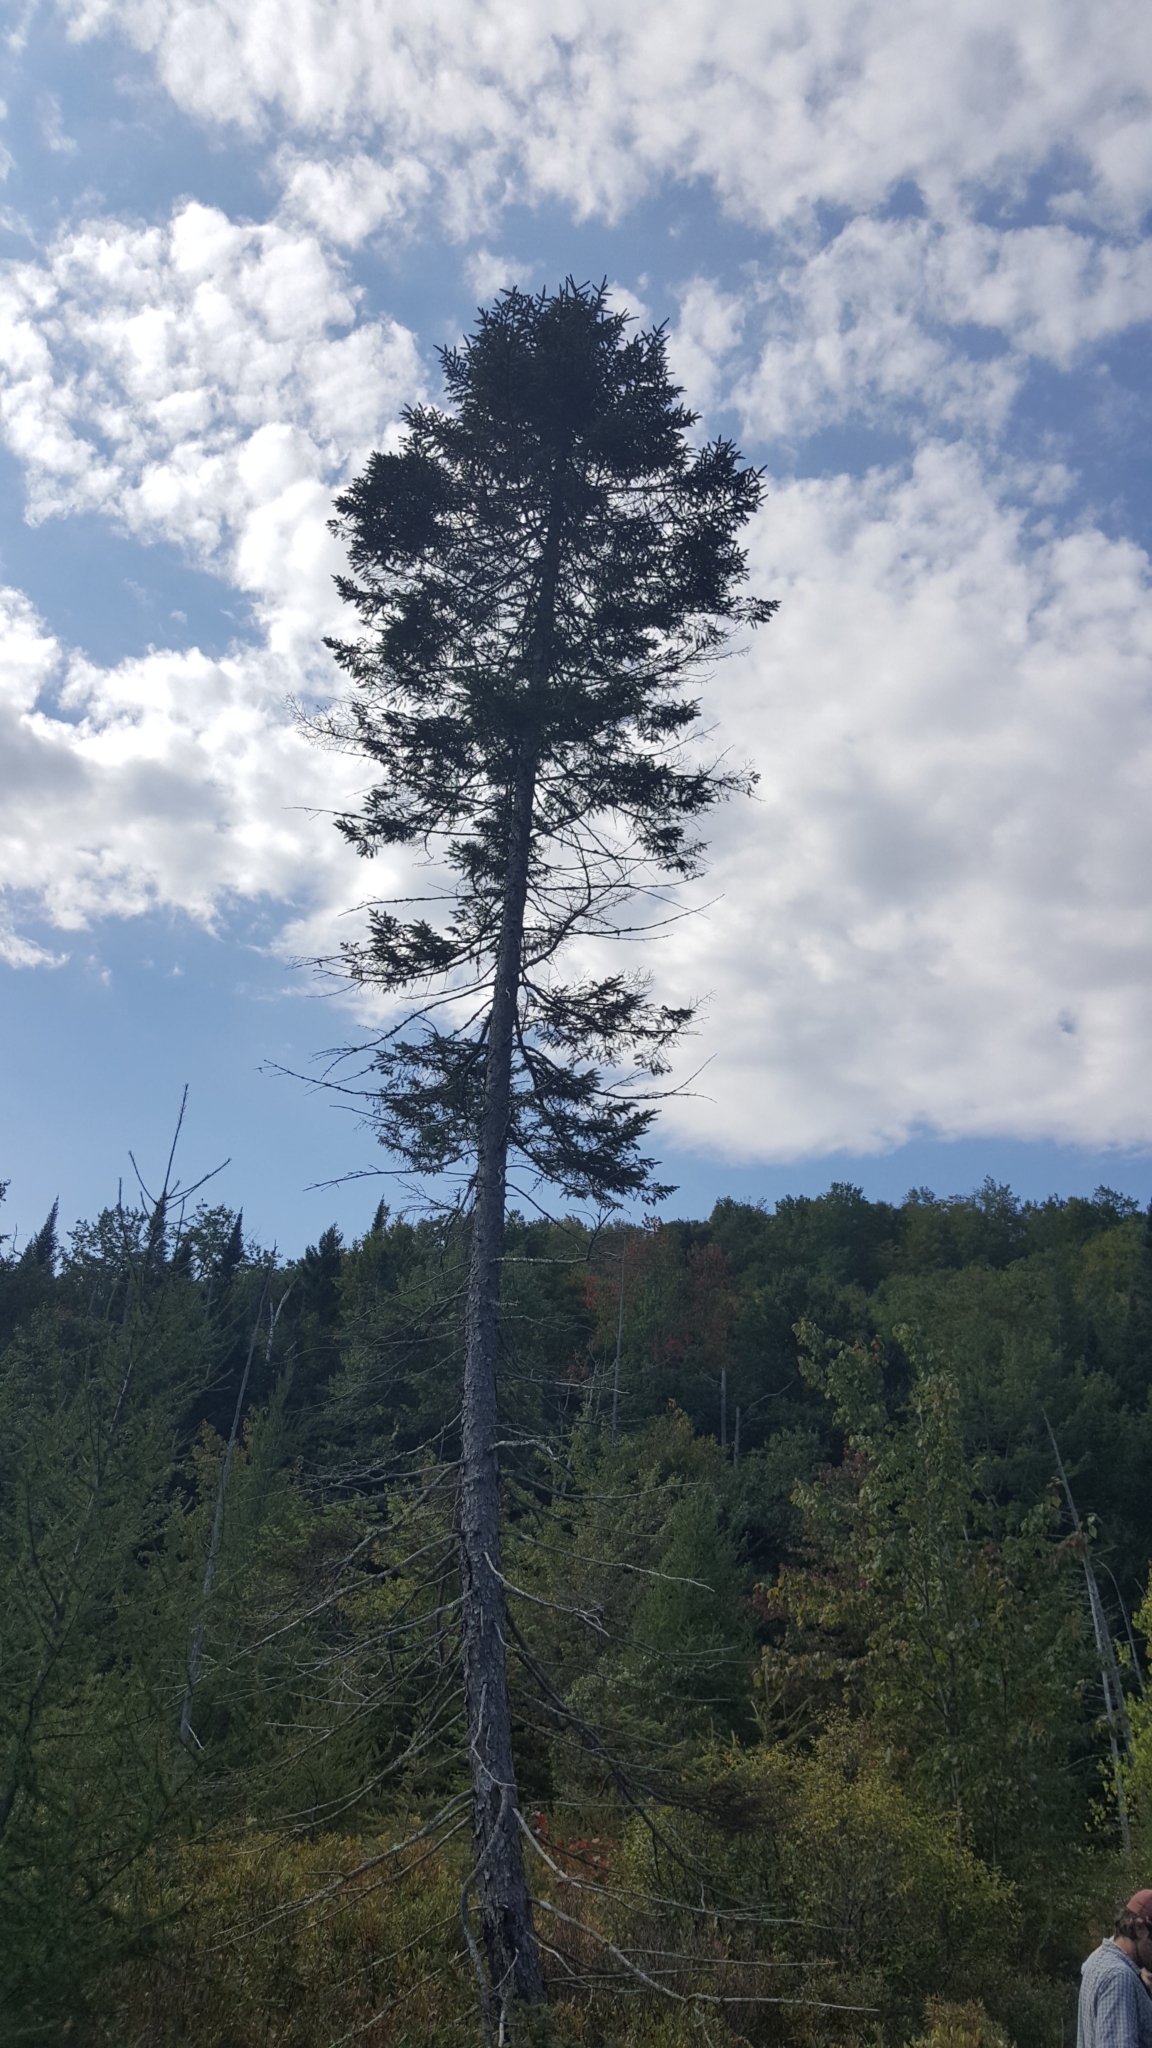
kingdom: Plantae
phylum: Tracheophyta
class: Pinopsida
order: Pinales
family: Pinaceae
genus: Picea
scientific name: Picea mariana
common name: Black spruce
